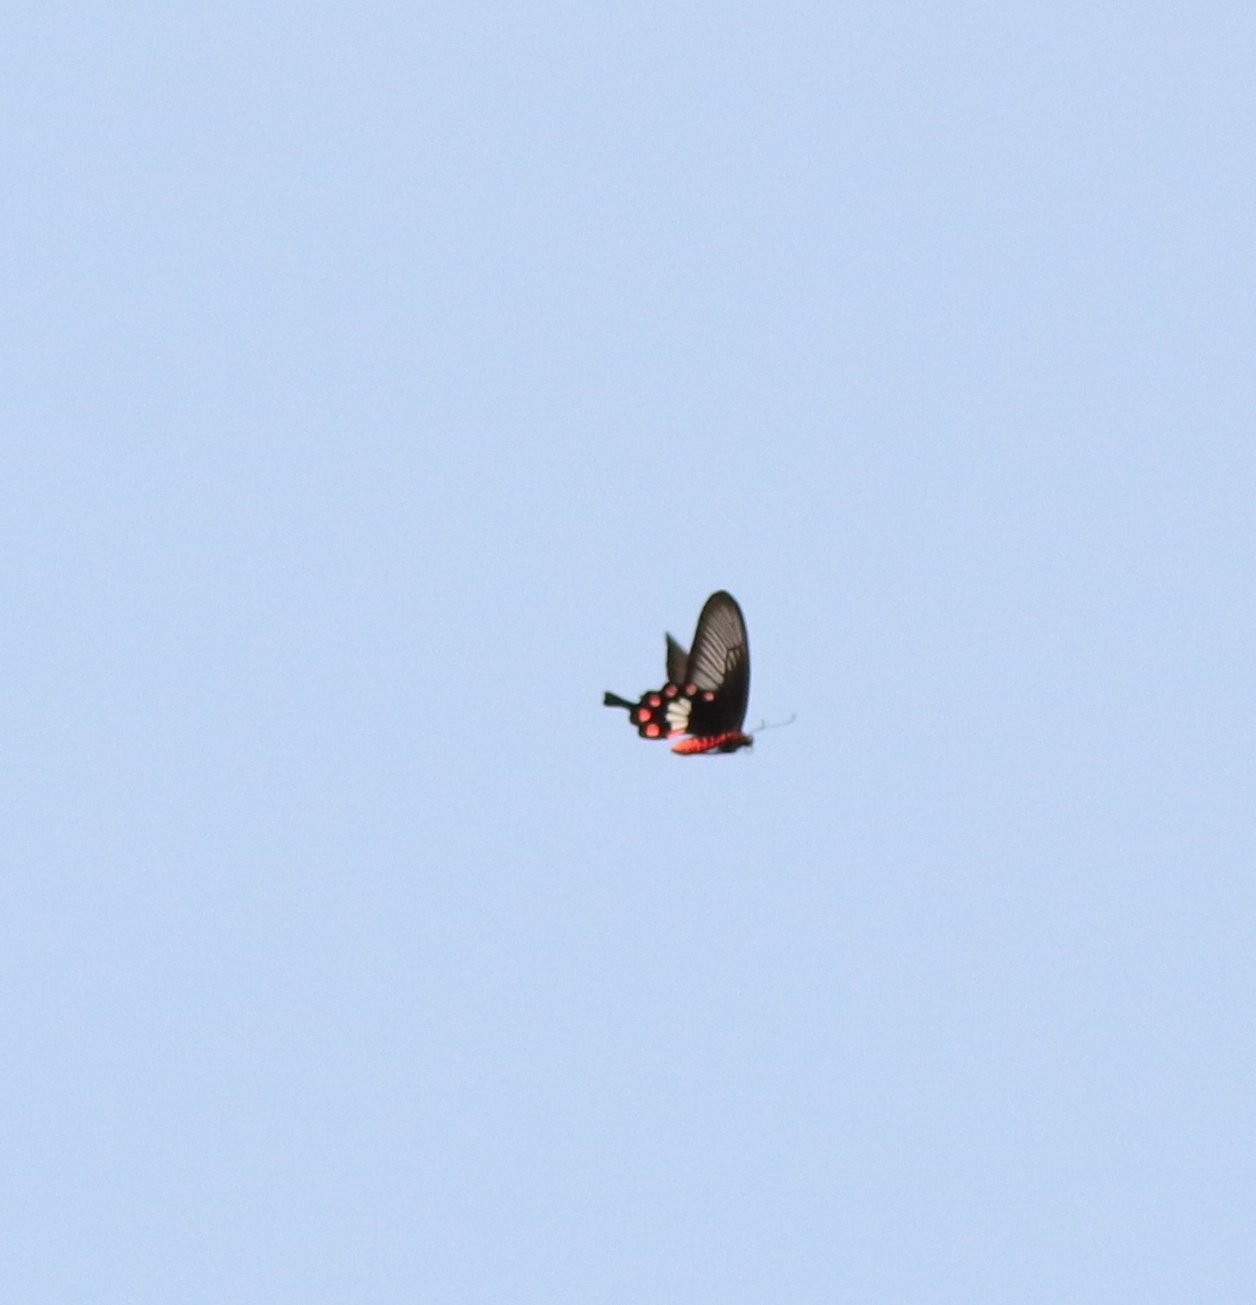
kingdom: Animalia
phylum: Arthropoda
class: Insecta
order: Lepidoptera
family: Papilionidae
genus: Pachliopta
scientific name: Pachliopta aristolochiae
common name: Common rose
